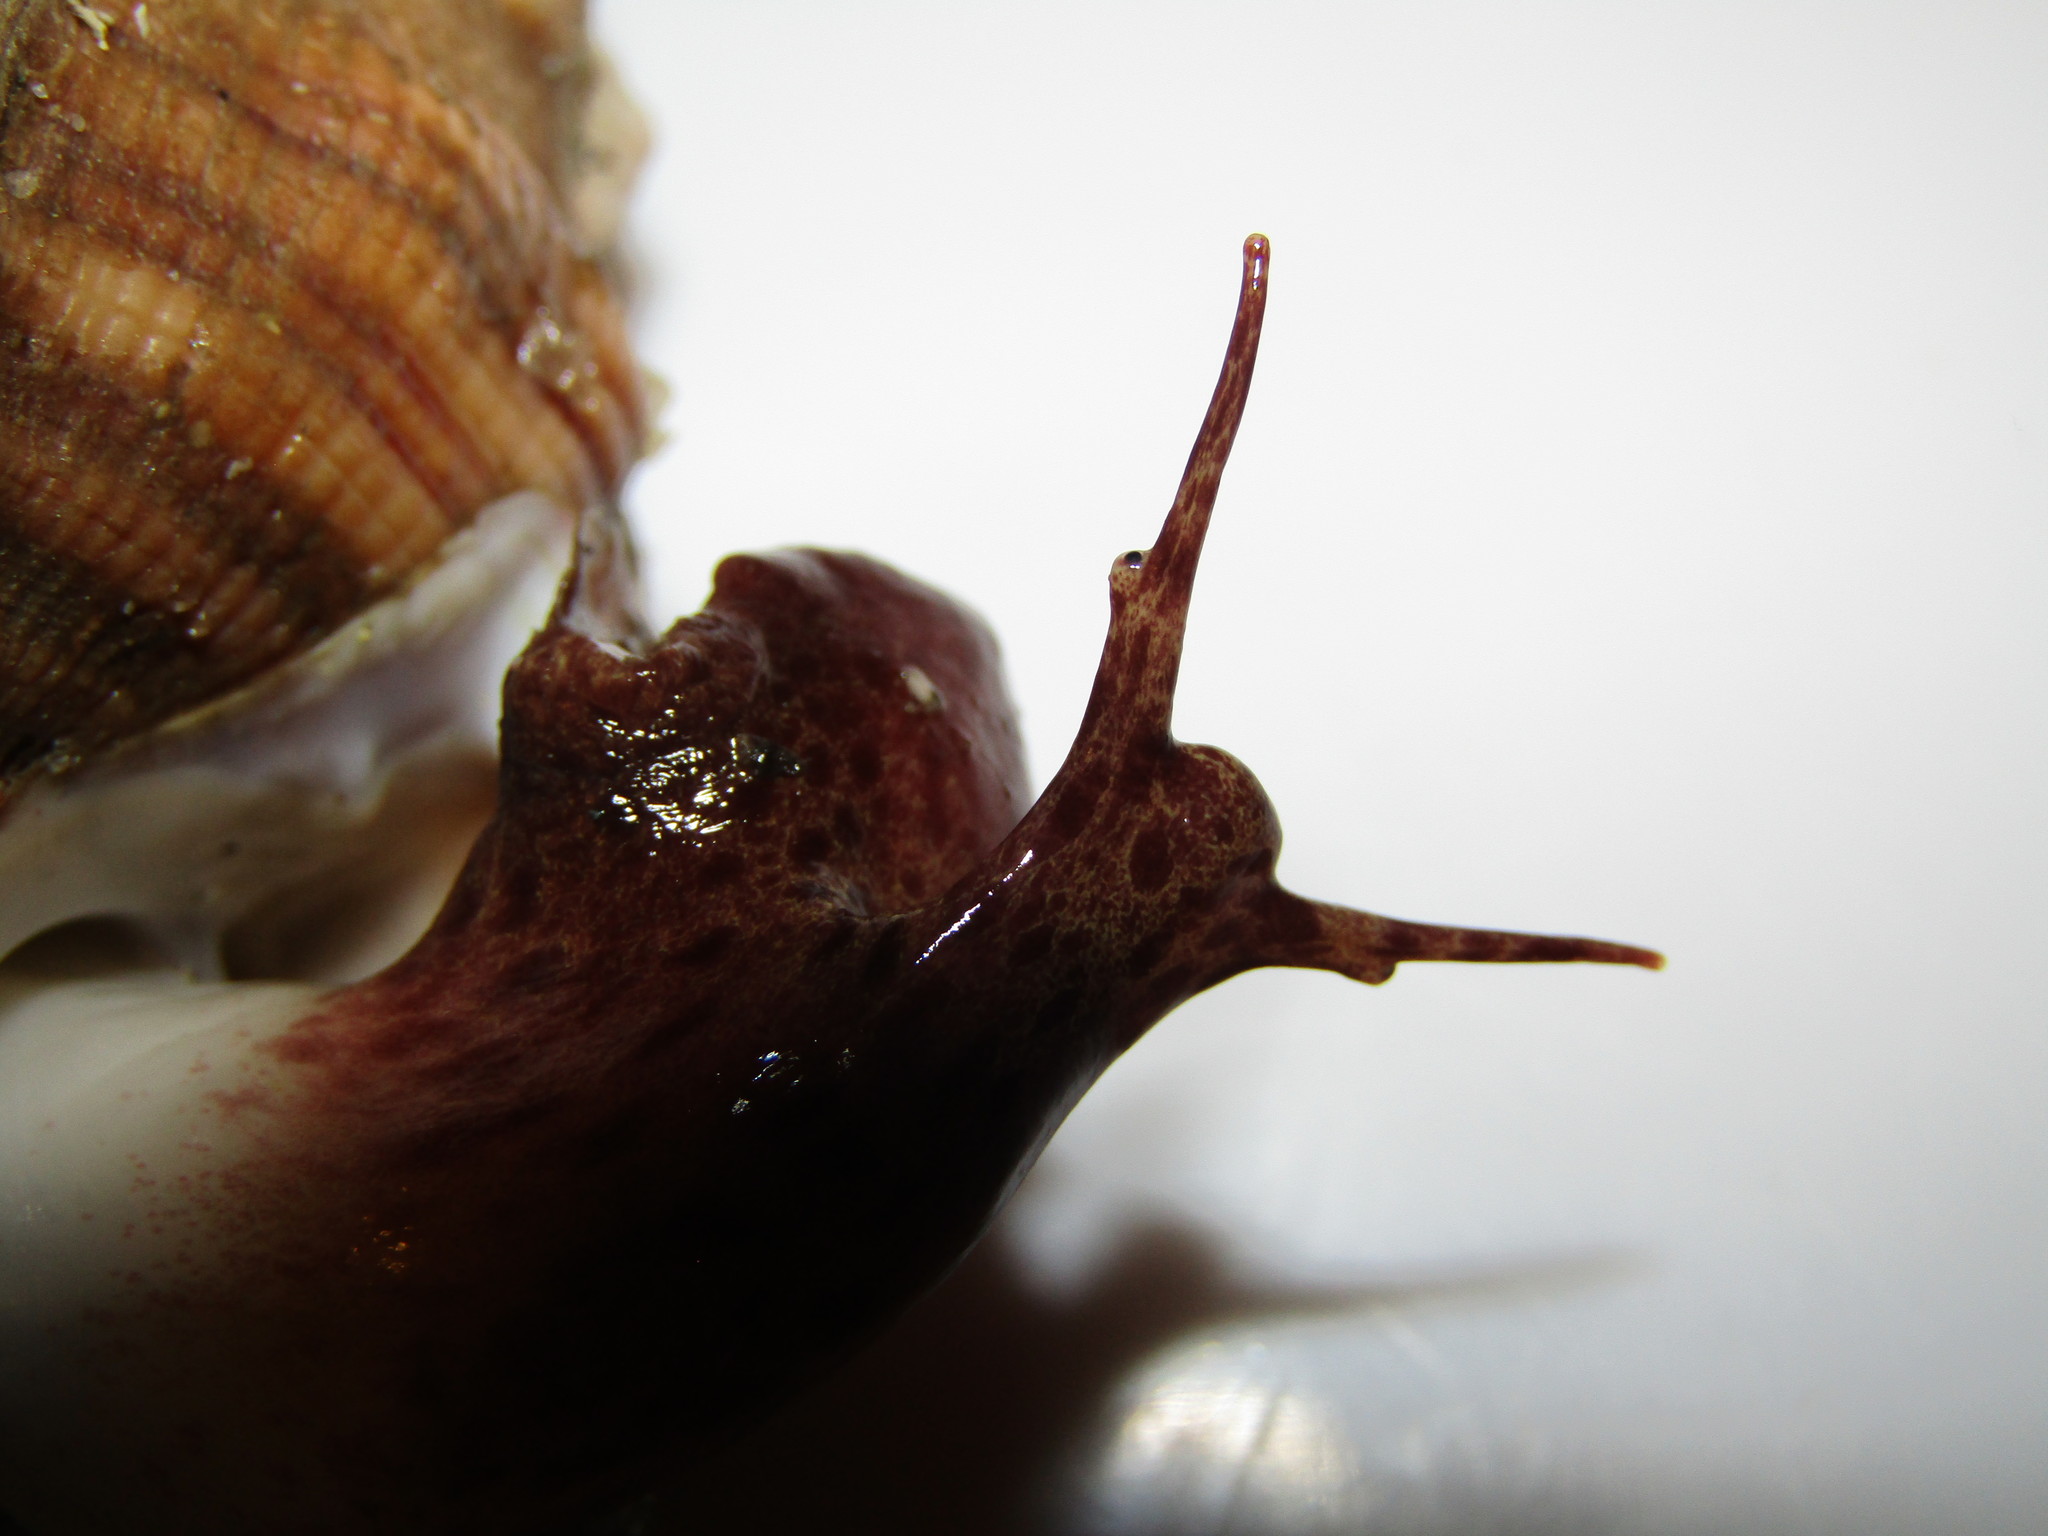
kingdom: Animalia
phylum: Mollusca
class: Gastropoda
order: Littorinimorpha
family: Cymatiidae
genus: Cabestana
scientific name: Cabestana spengleri
